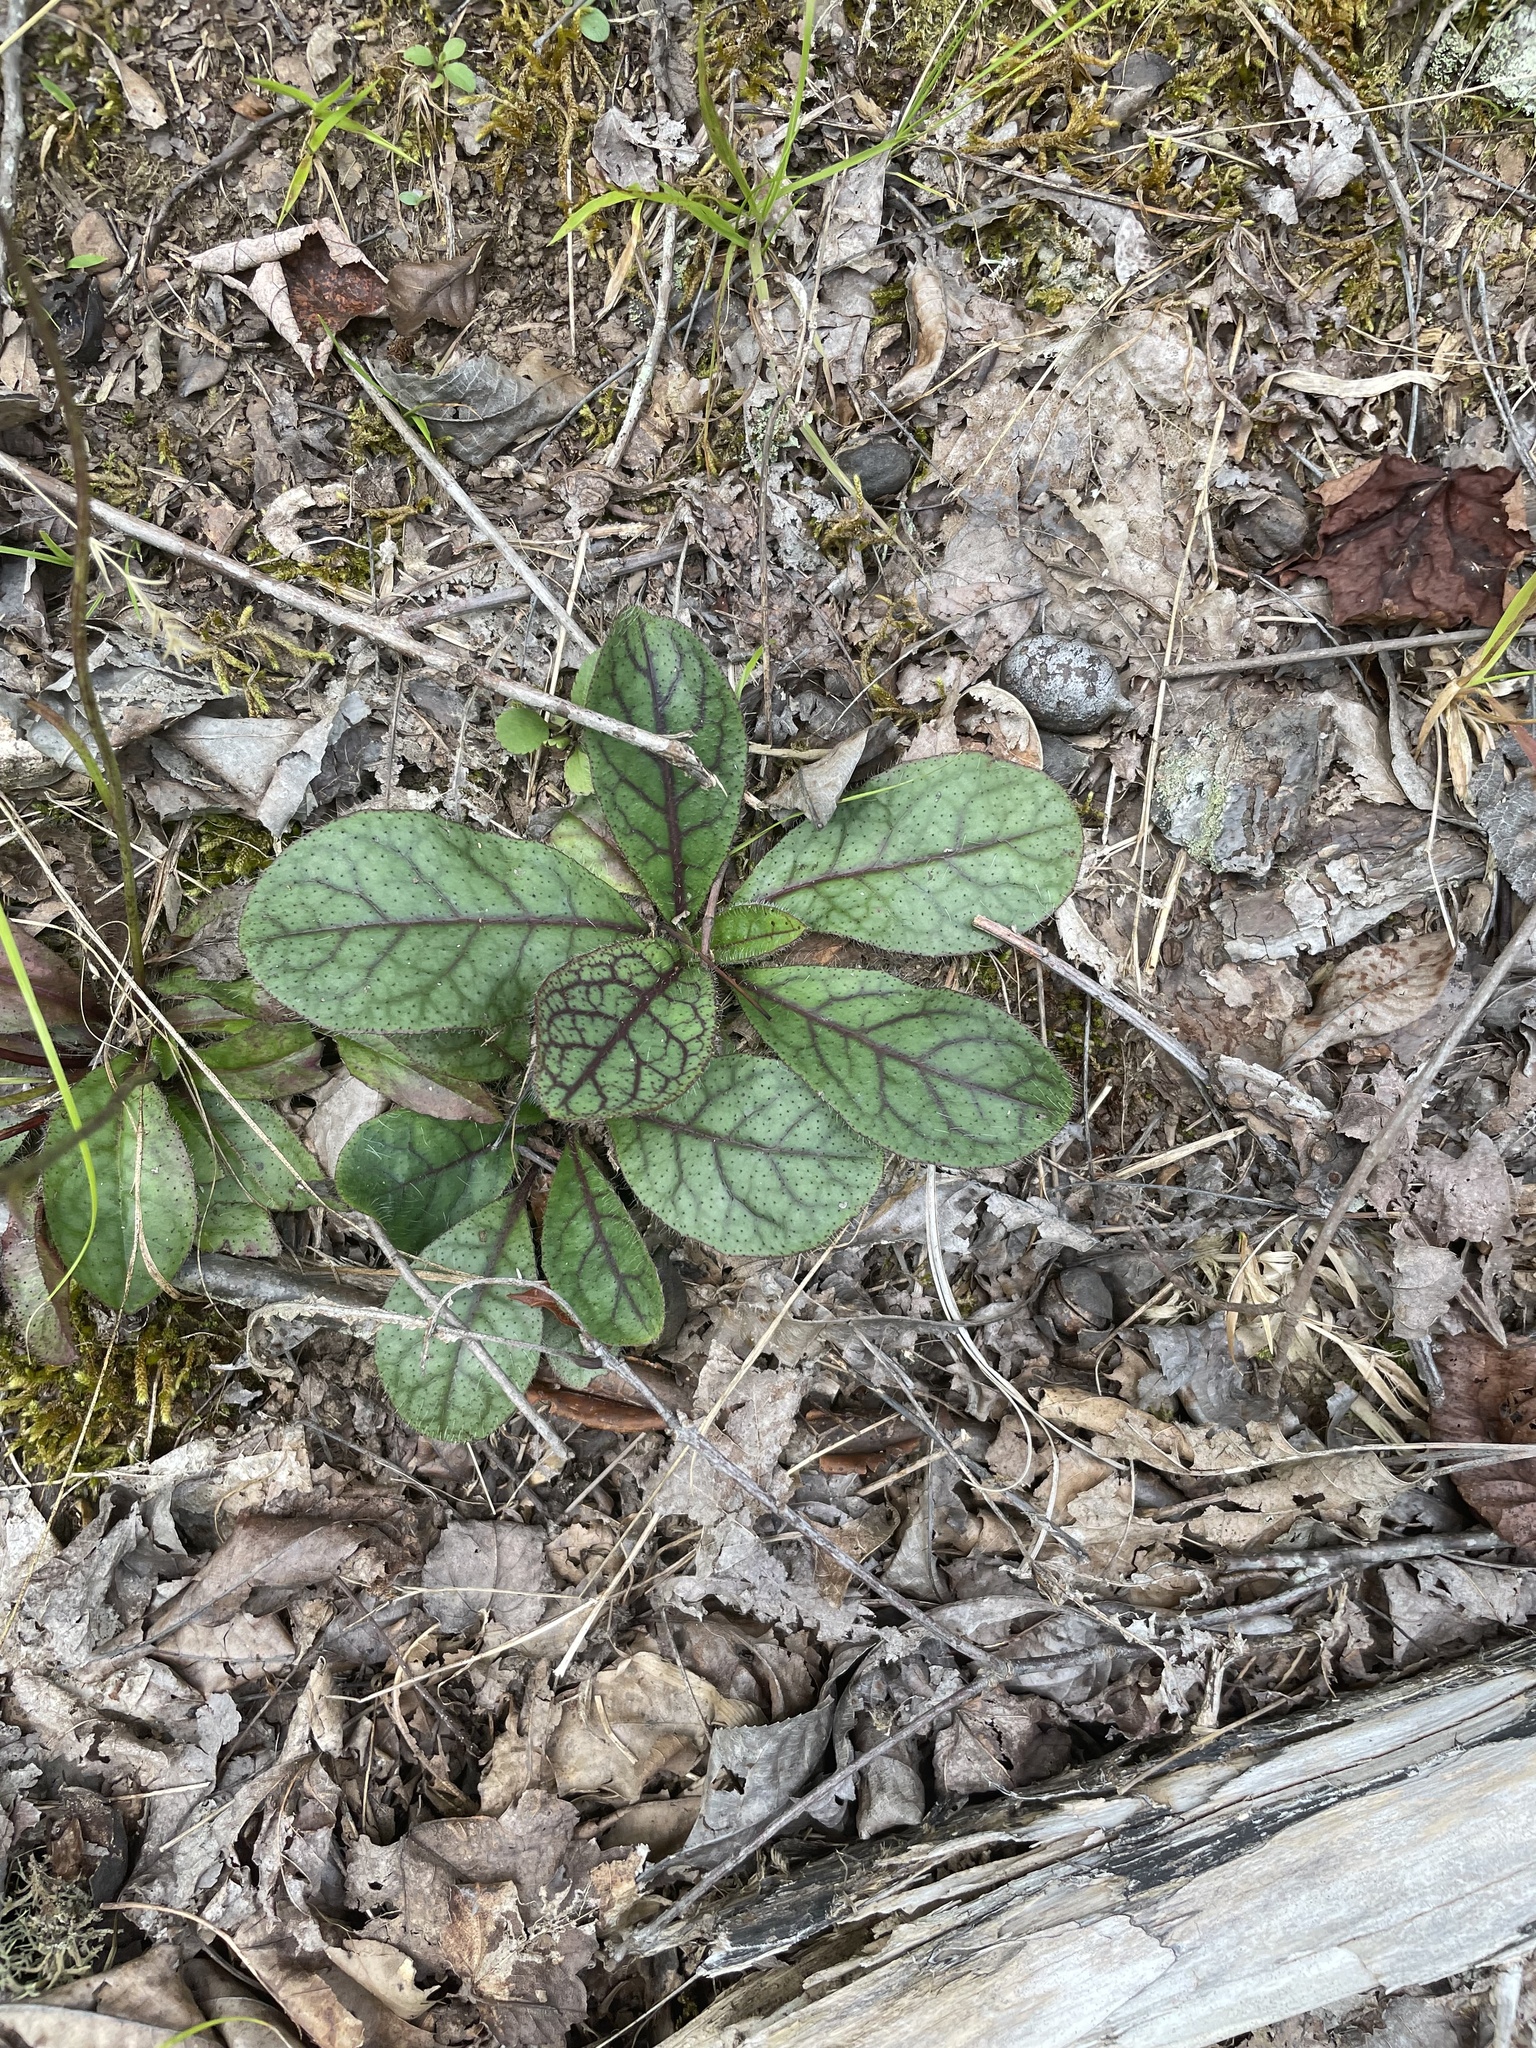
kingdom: Plantae
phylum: Tracheophyta
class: Magnoliopsida
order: Asterales
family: Asteraceae
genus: Hieracium
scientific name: Hieracium venosum
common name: Rattlesnake hawkweed
